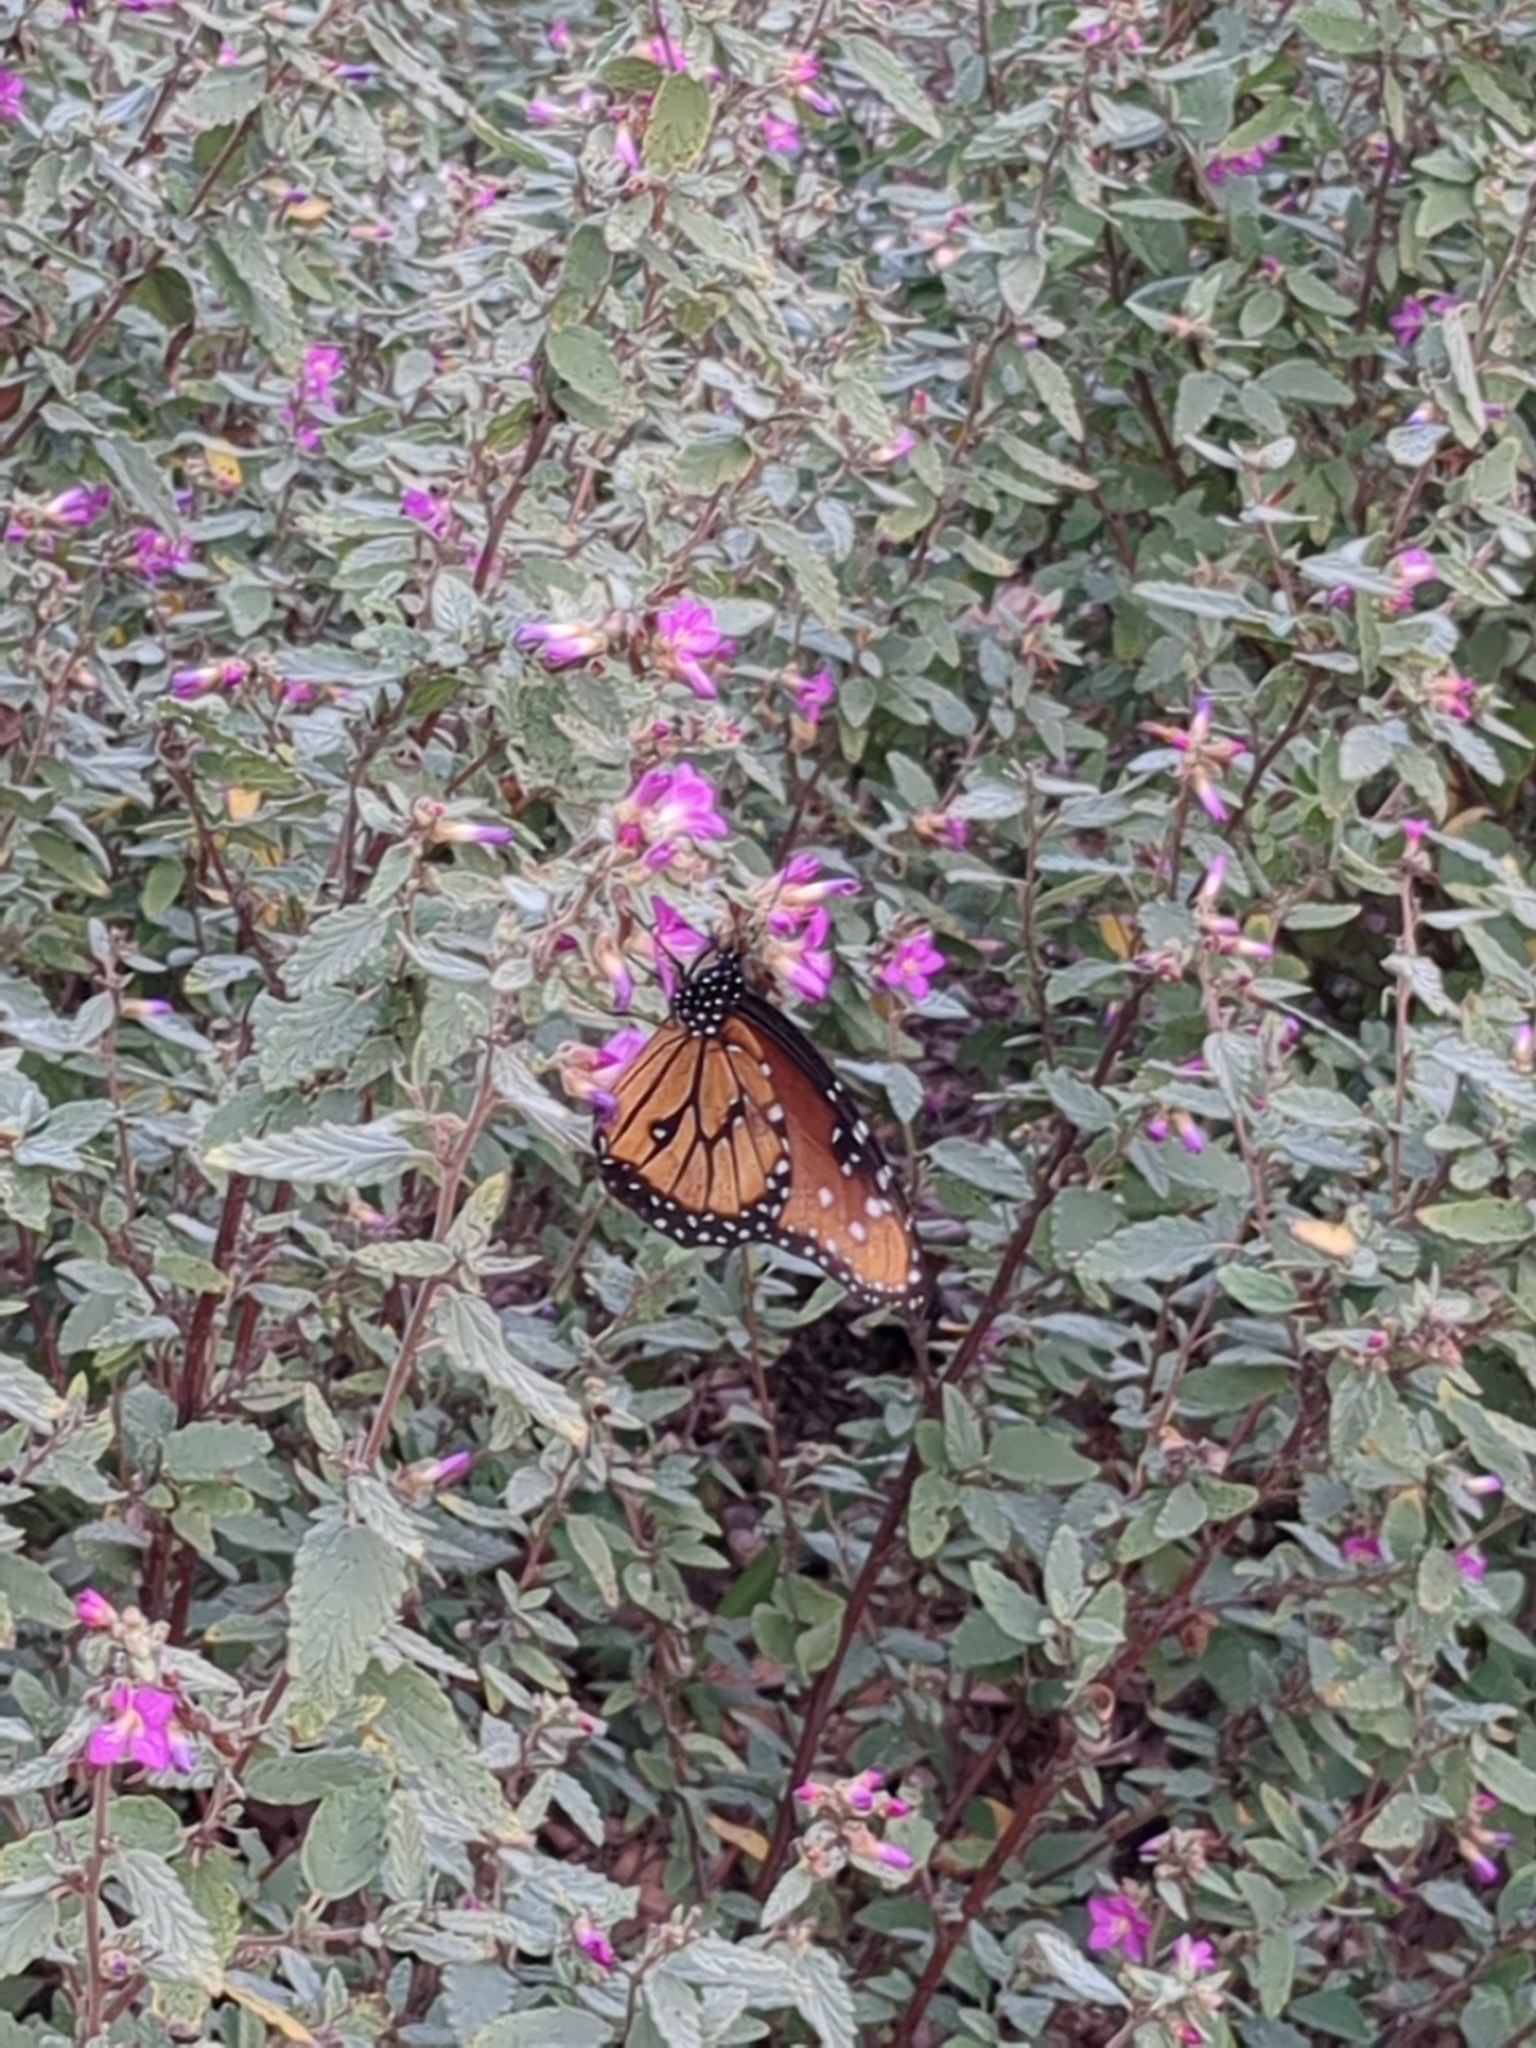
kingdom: Animalia
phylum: Arthropoda
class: Insecta
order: Lepidoptera
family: Nymphalidae
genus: Danaus
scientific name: Danaus gilippus
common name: Queen
